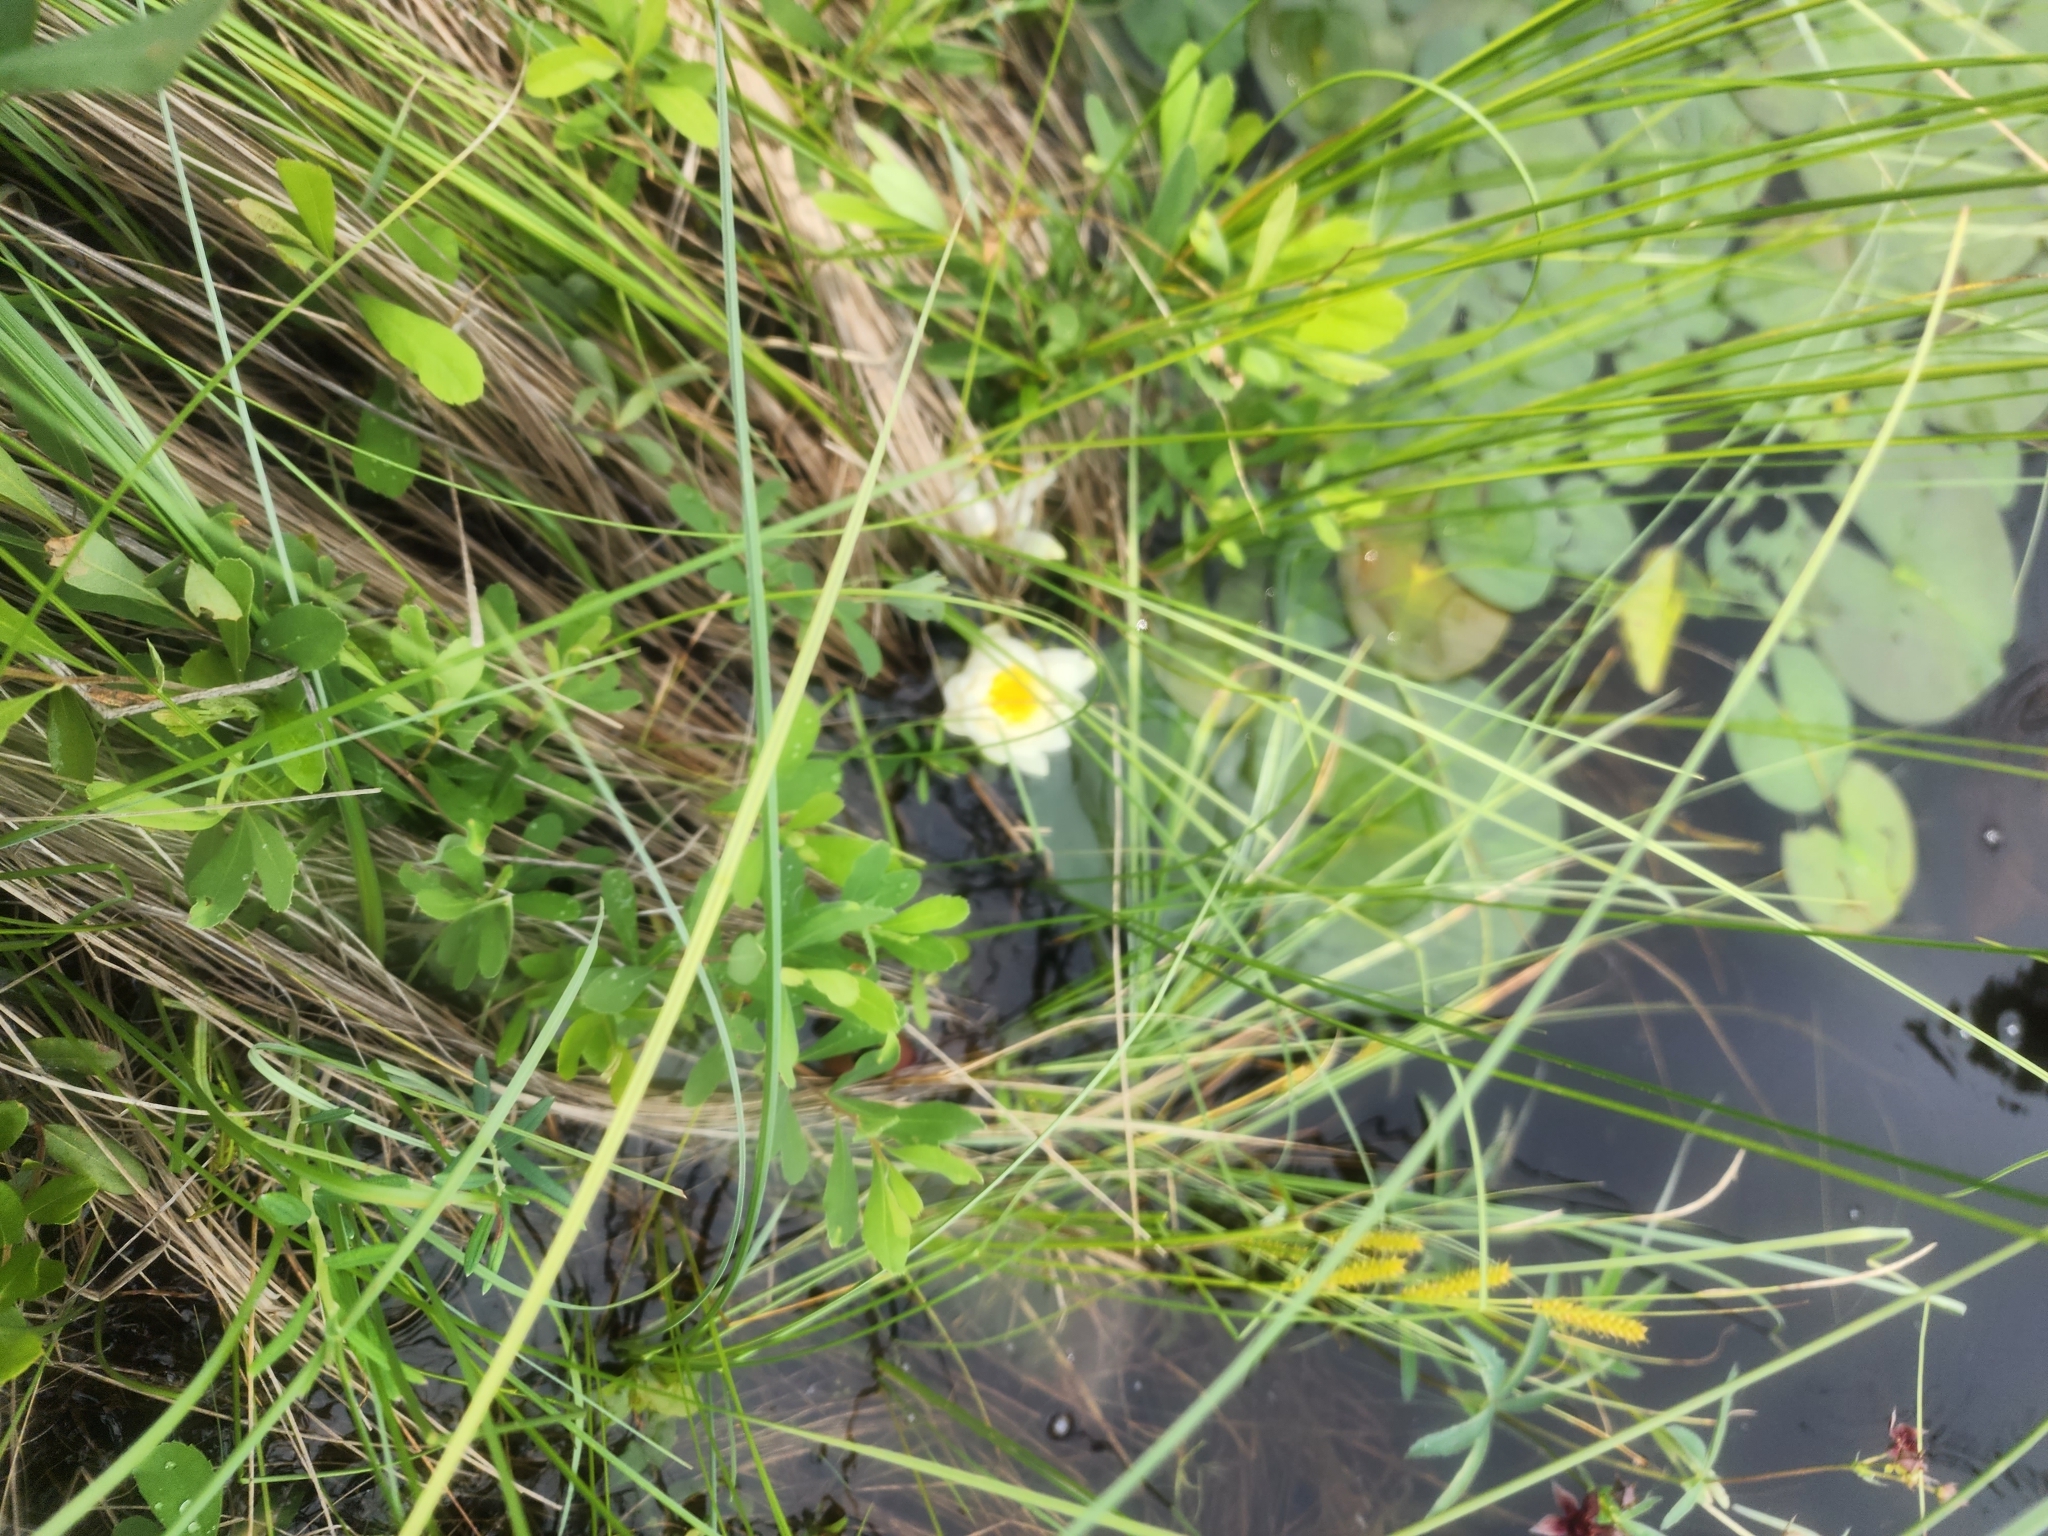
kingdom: Plantae
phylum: Tracheophyta
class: Magnoliopsida
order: Nymphaeales
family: Nymphaeaceae
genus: Nymphaea
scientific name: Nymphaea odorata
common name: Fragrant water-lily
